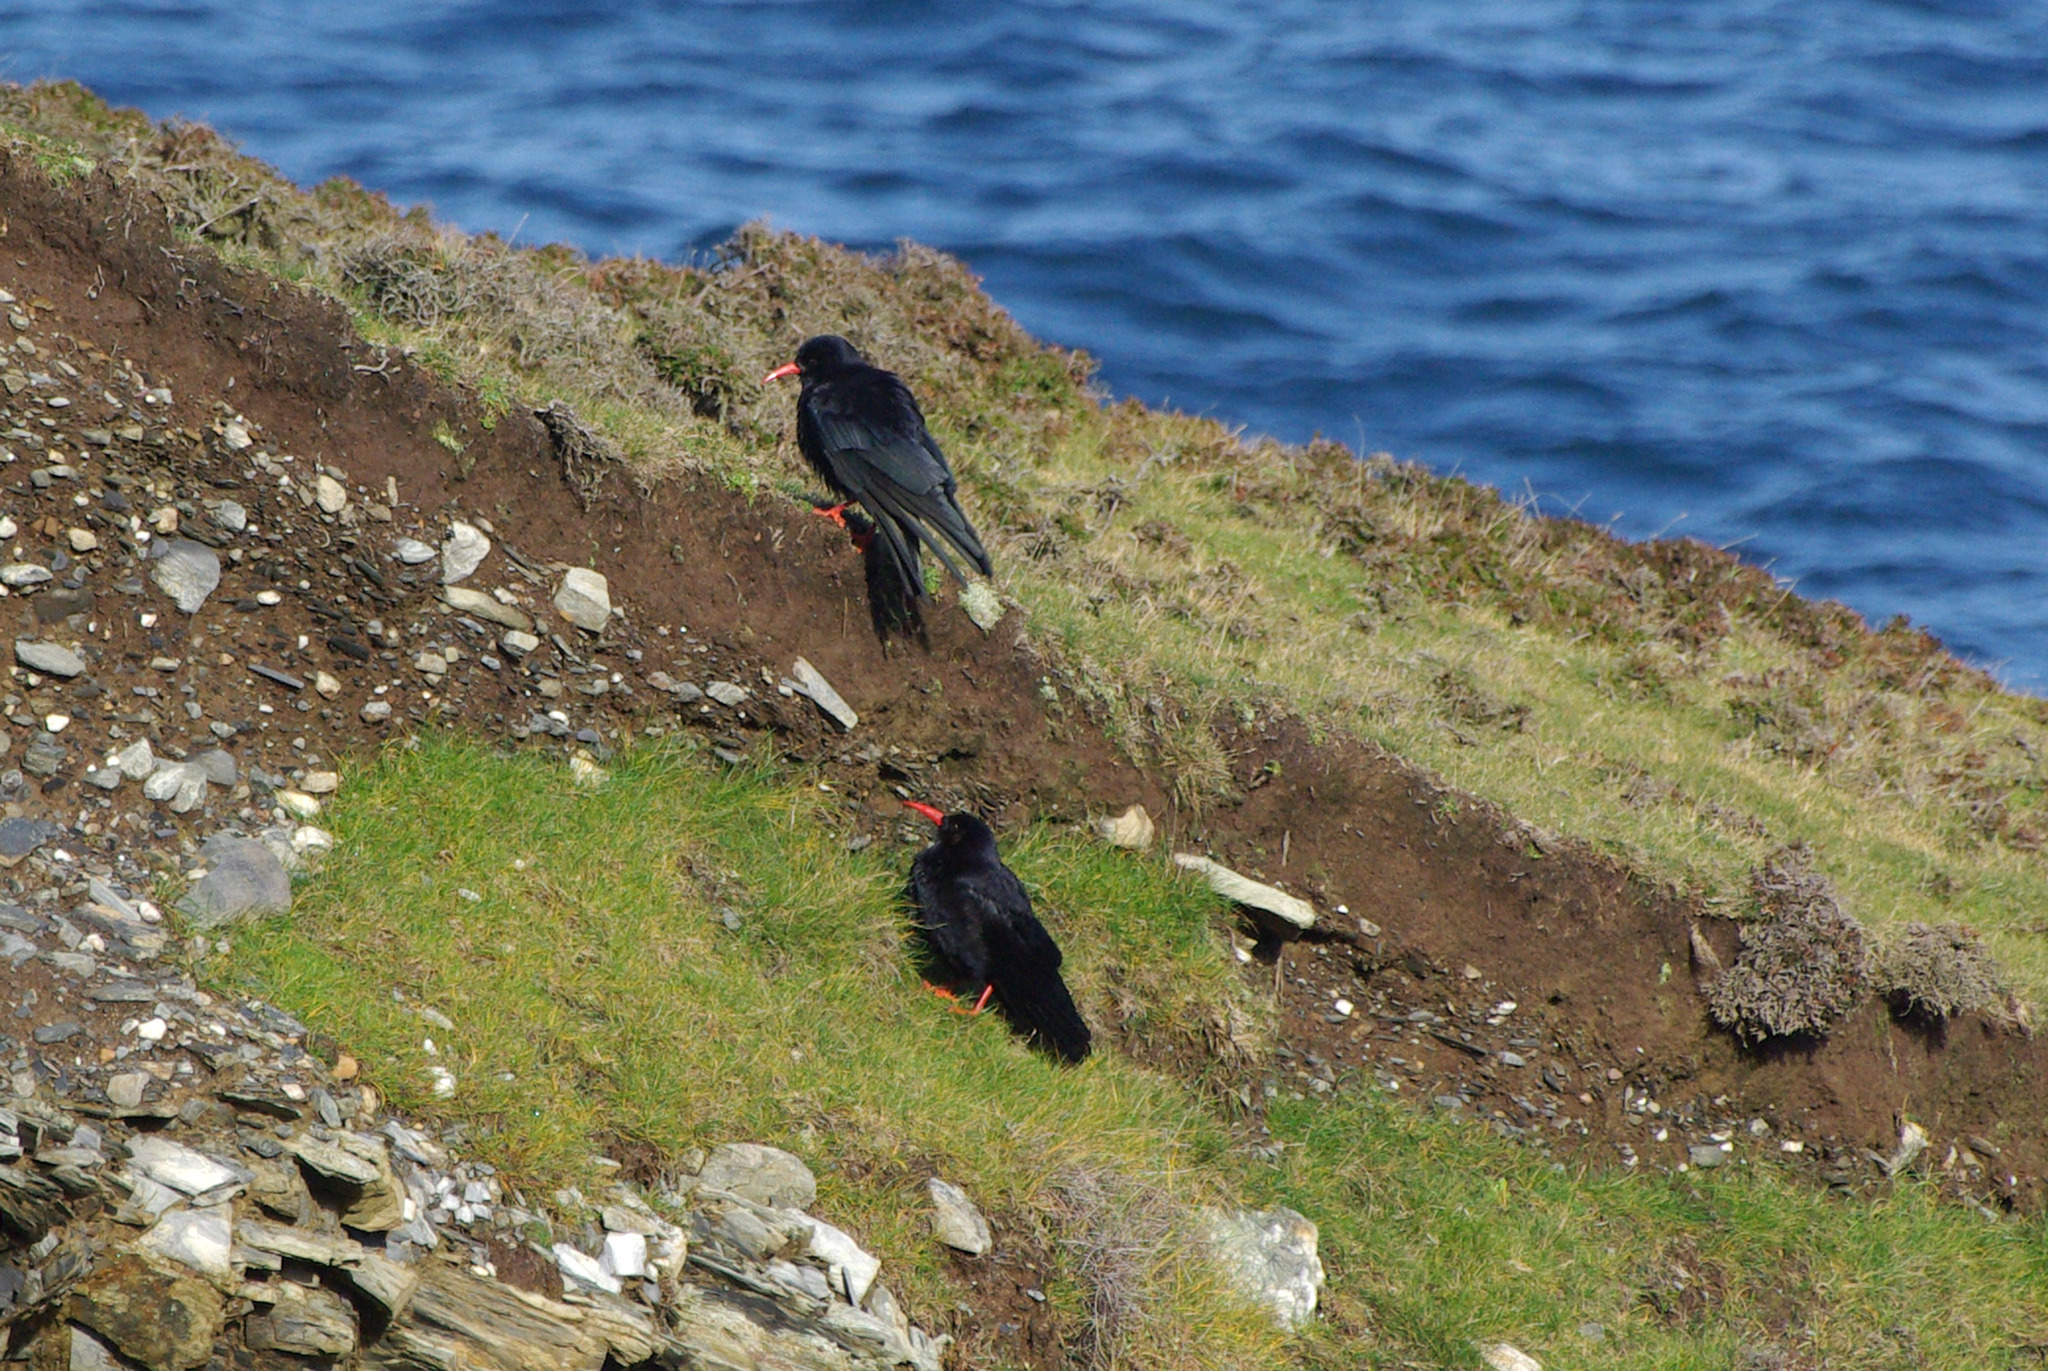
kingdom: Animalia
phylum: Chordata
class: Aves
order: Passeriformes
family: Corvidae
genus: Pyrrhocorax
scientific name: Pyrrhocorax pyrrhocorax
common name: Red-billed chough
